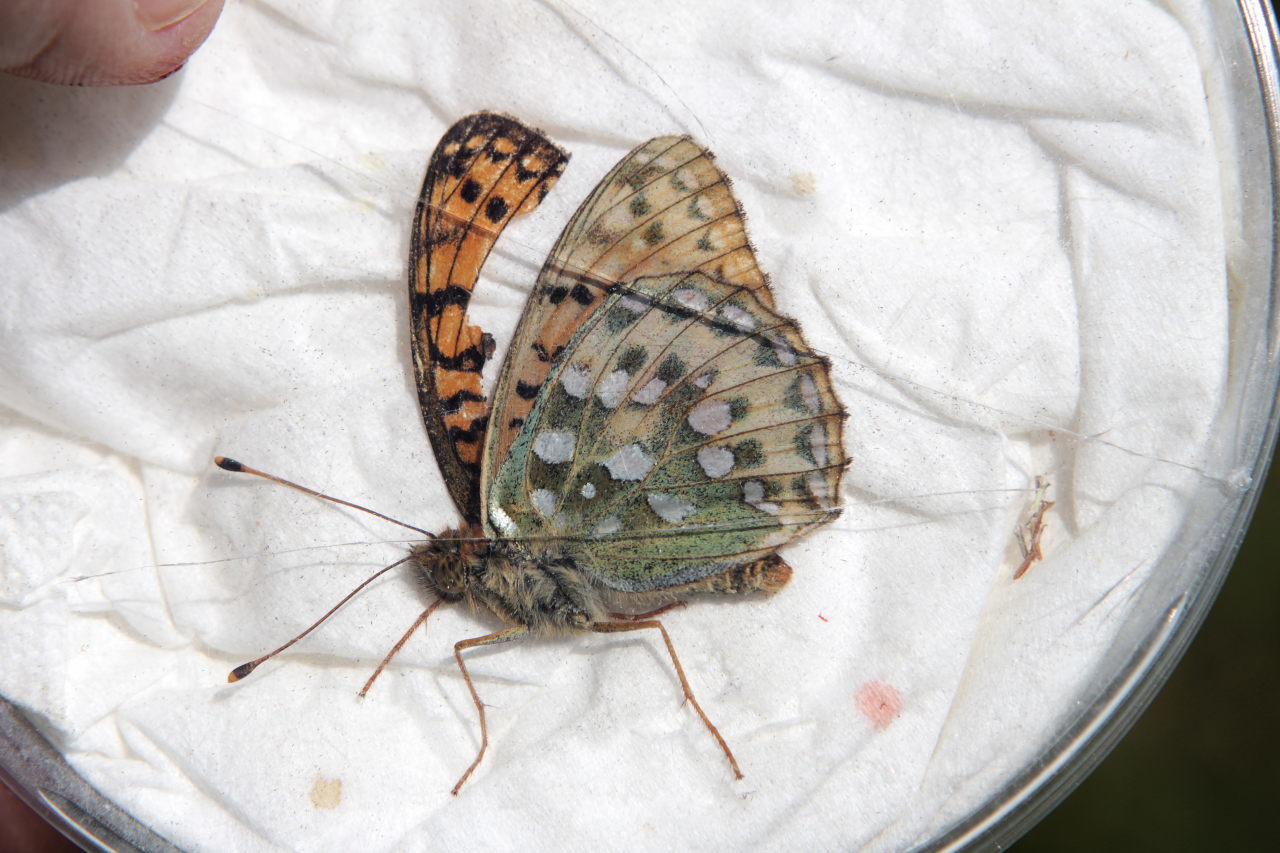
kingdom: Animalia
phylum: Arthropoda
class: Insecta
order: Lepidoptera
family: Nymphalidae
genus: Speyeria
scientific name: Speyeria aglaja
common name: Dark green fritillary
